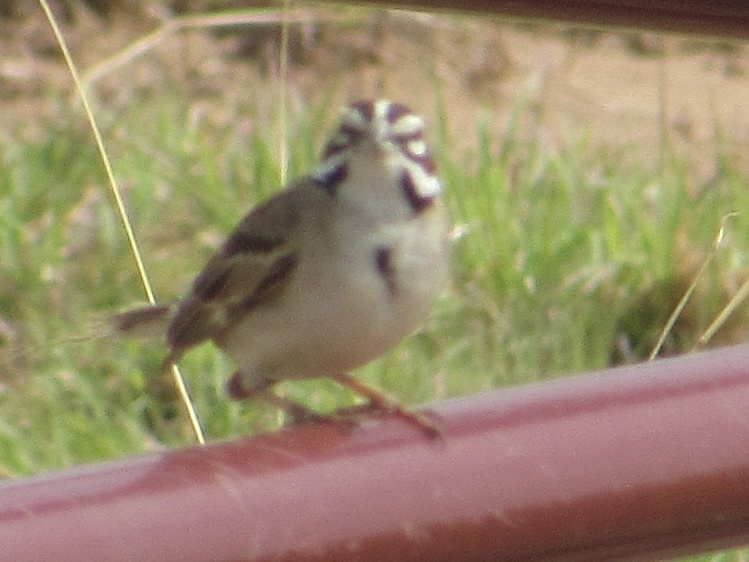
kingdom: Animalia
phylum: Chordata
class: Aves
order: Passeriformes
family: Passerellidae
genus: Chondestes
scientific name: Chondestes grammacus
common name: Lark sparrow
